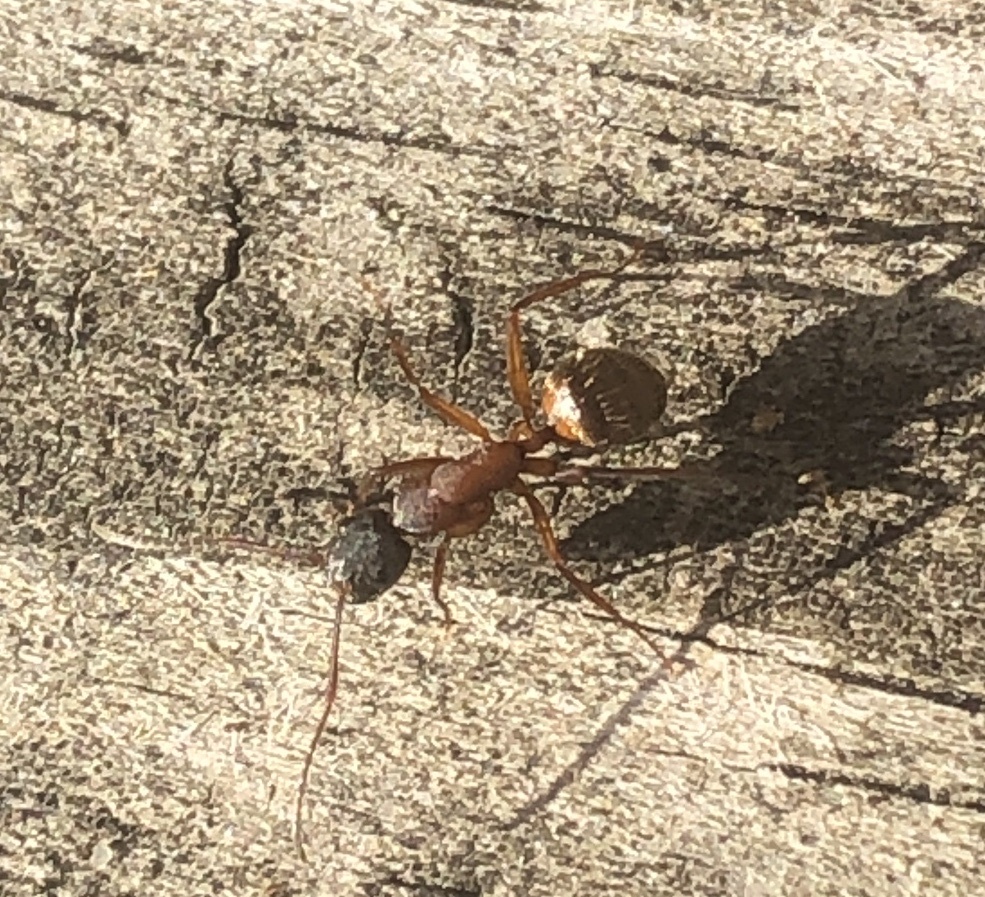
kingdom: Animalia
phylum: Arthropoda
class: Insecta
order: Hymenoptera
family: Formicidae
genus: Camponotus
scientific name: Camponotus chromaiodes
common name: Red carpenter ant
